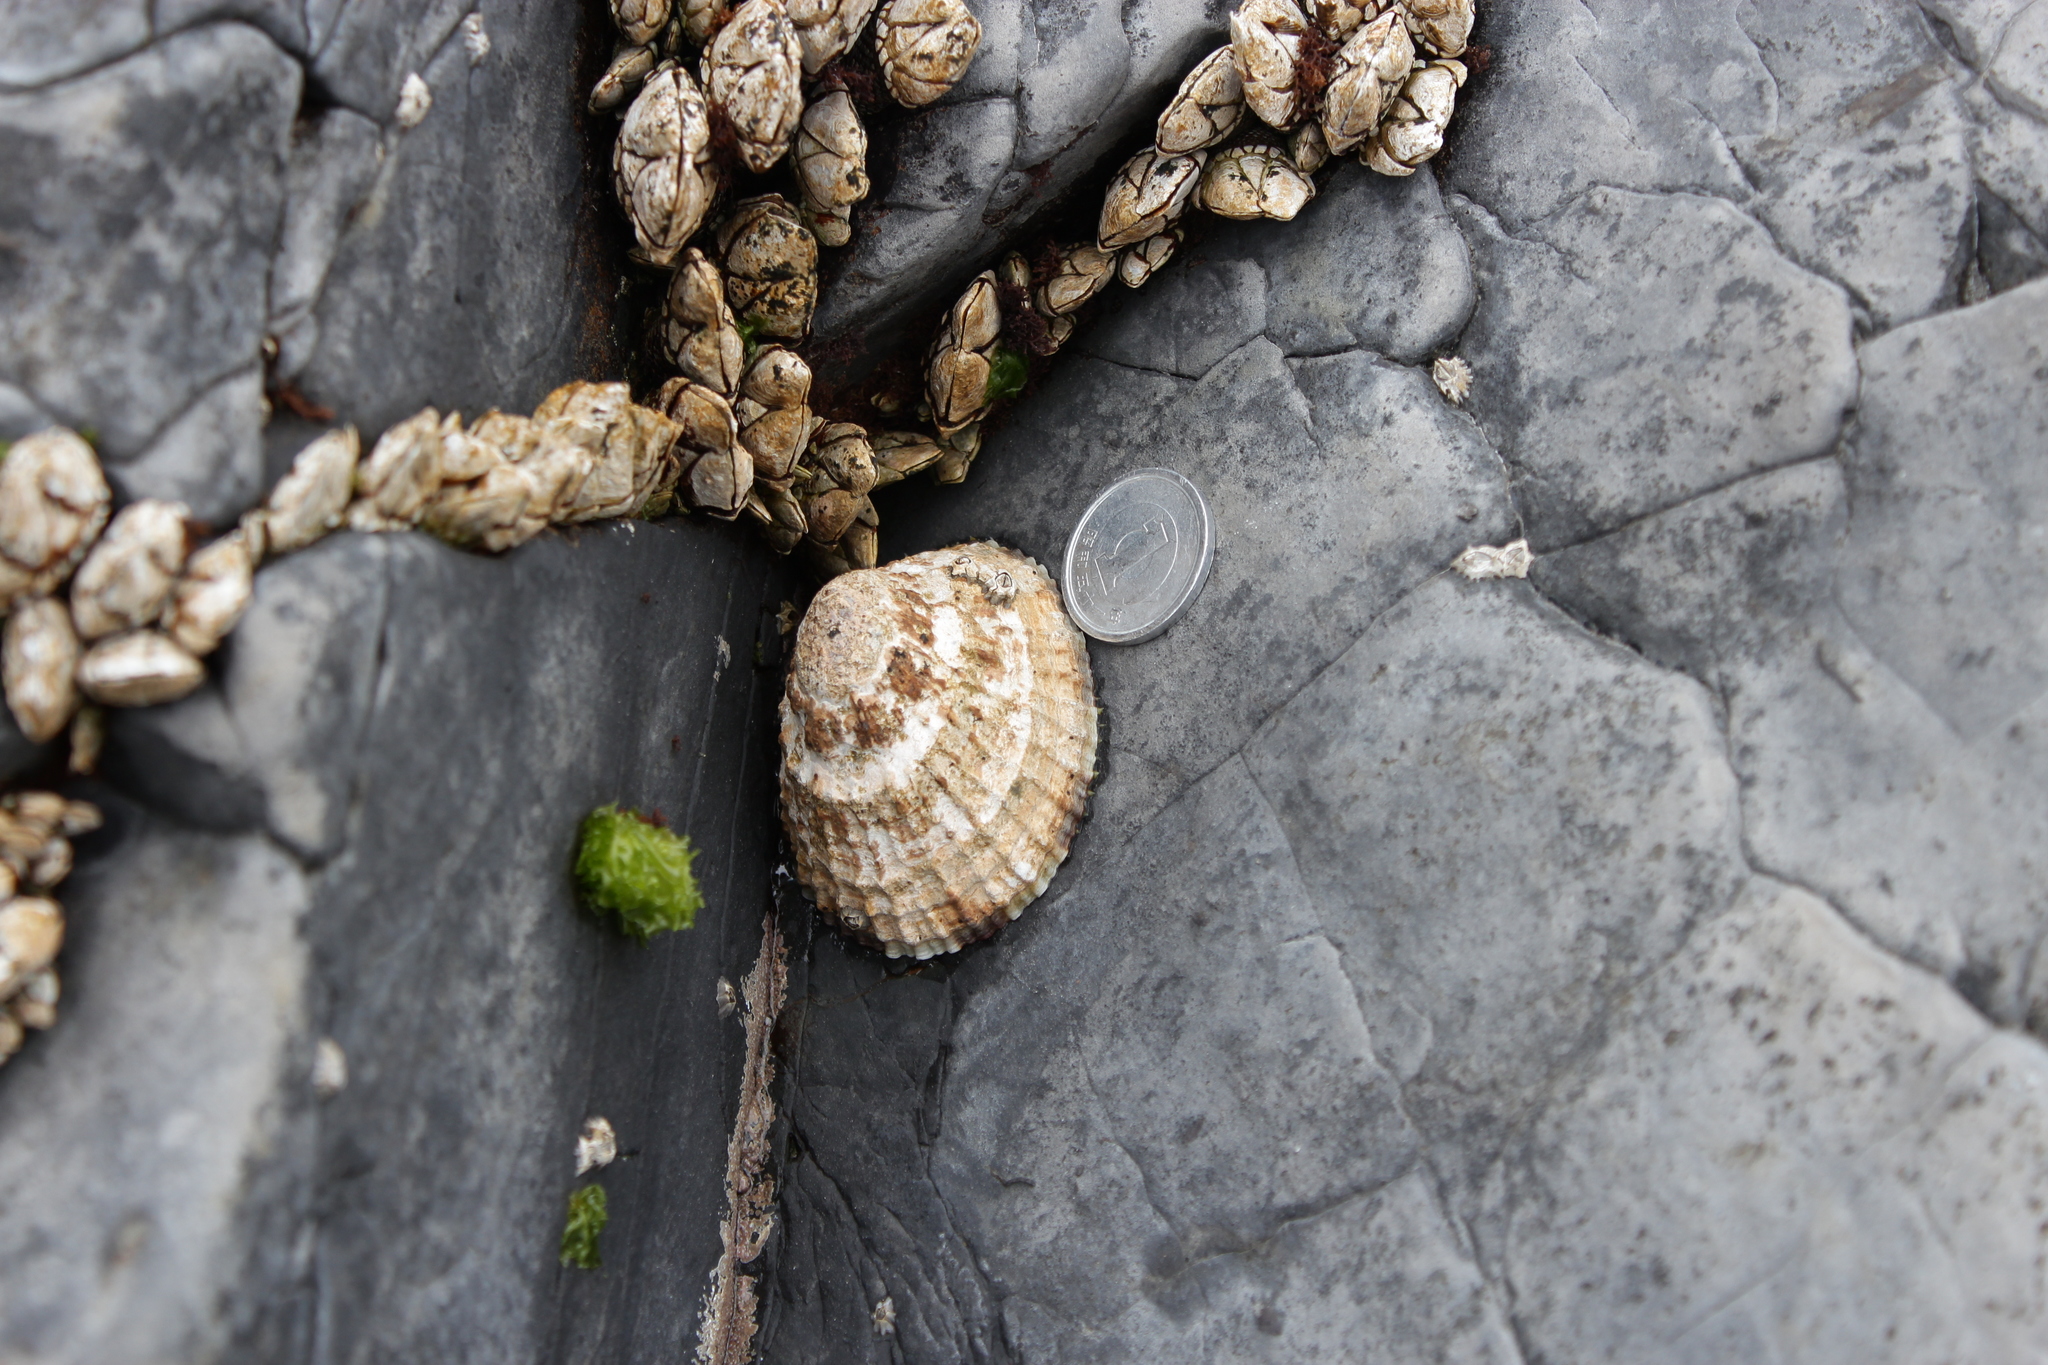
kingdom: Animalia
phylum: Mollusca
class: Gastropoda
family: Nacellidae
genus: Cellana
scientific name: Cellana grata
